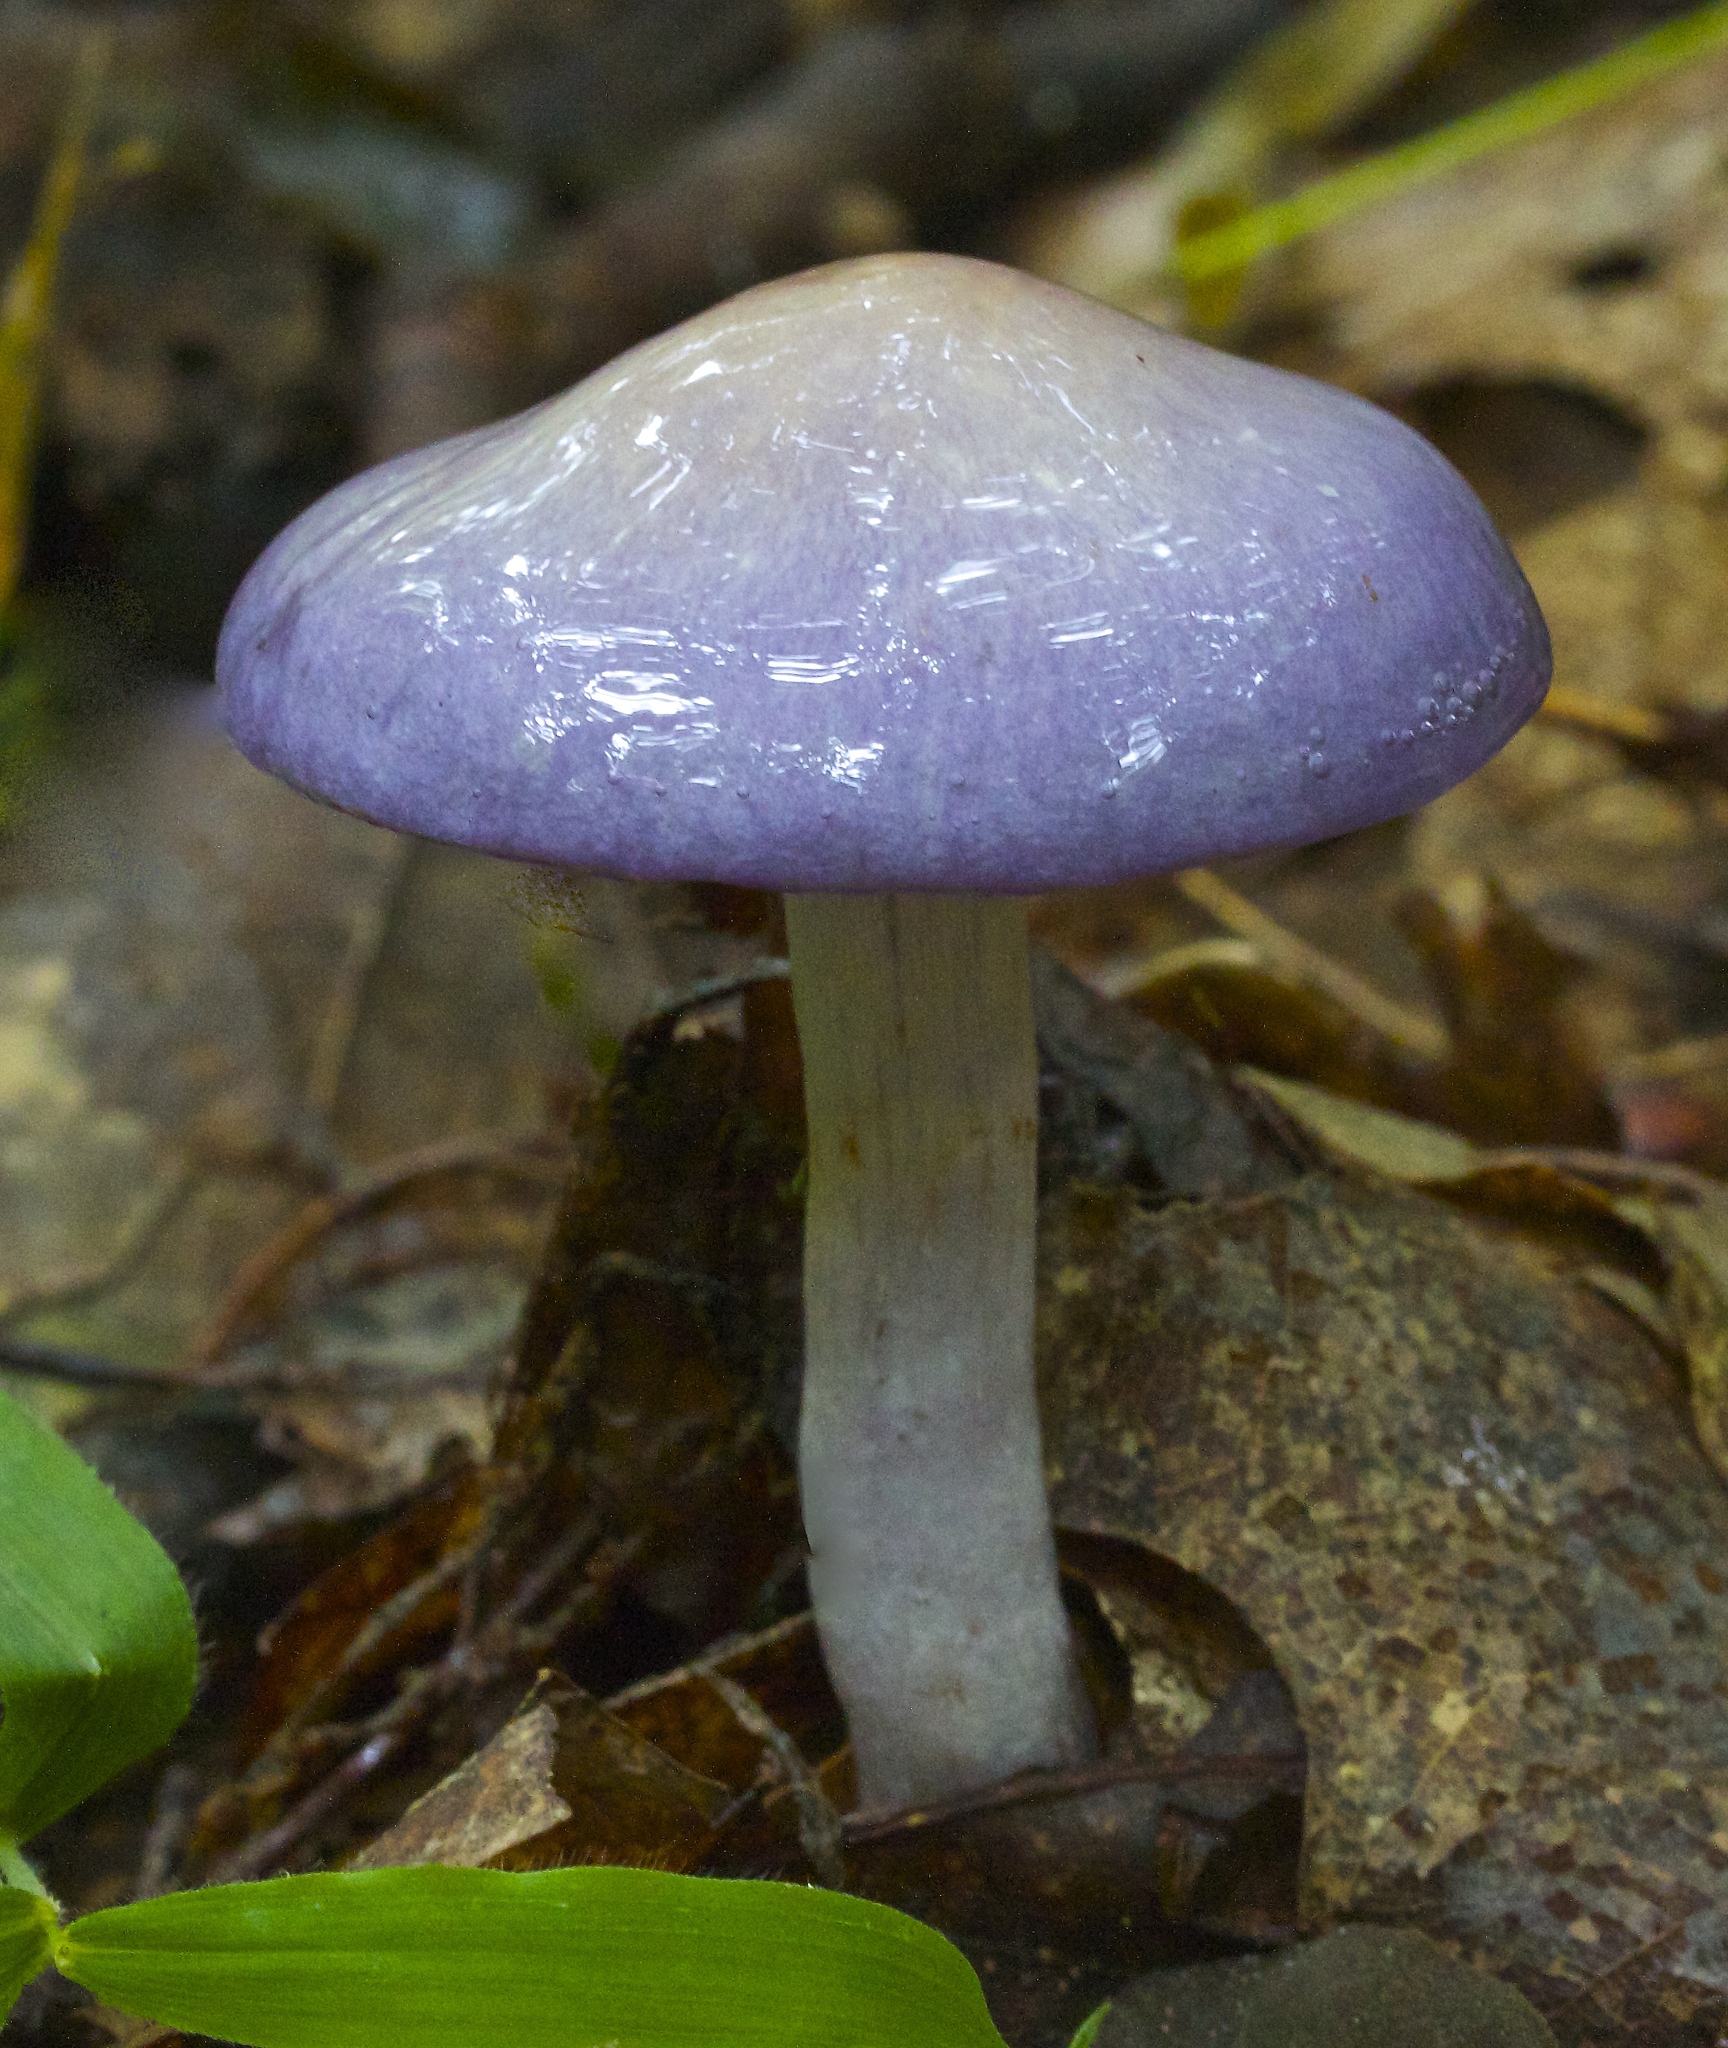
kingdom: Fungi
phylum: Basidiomycota
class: Agaricomycetes
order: Agaricales
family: Cortinariaceae
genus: Cortinarius
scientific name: Cortinarius iodes
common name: Viscid violet cort
